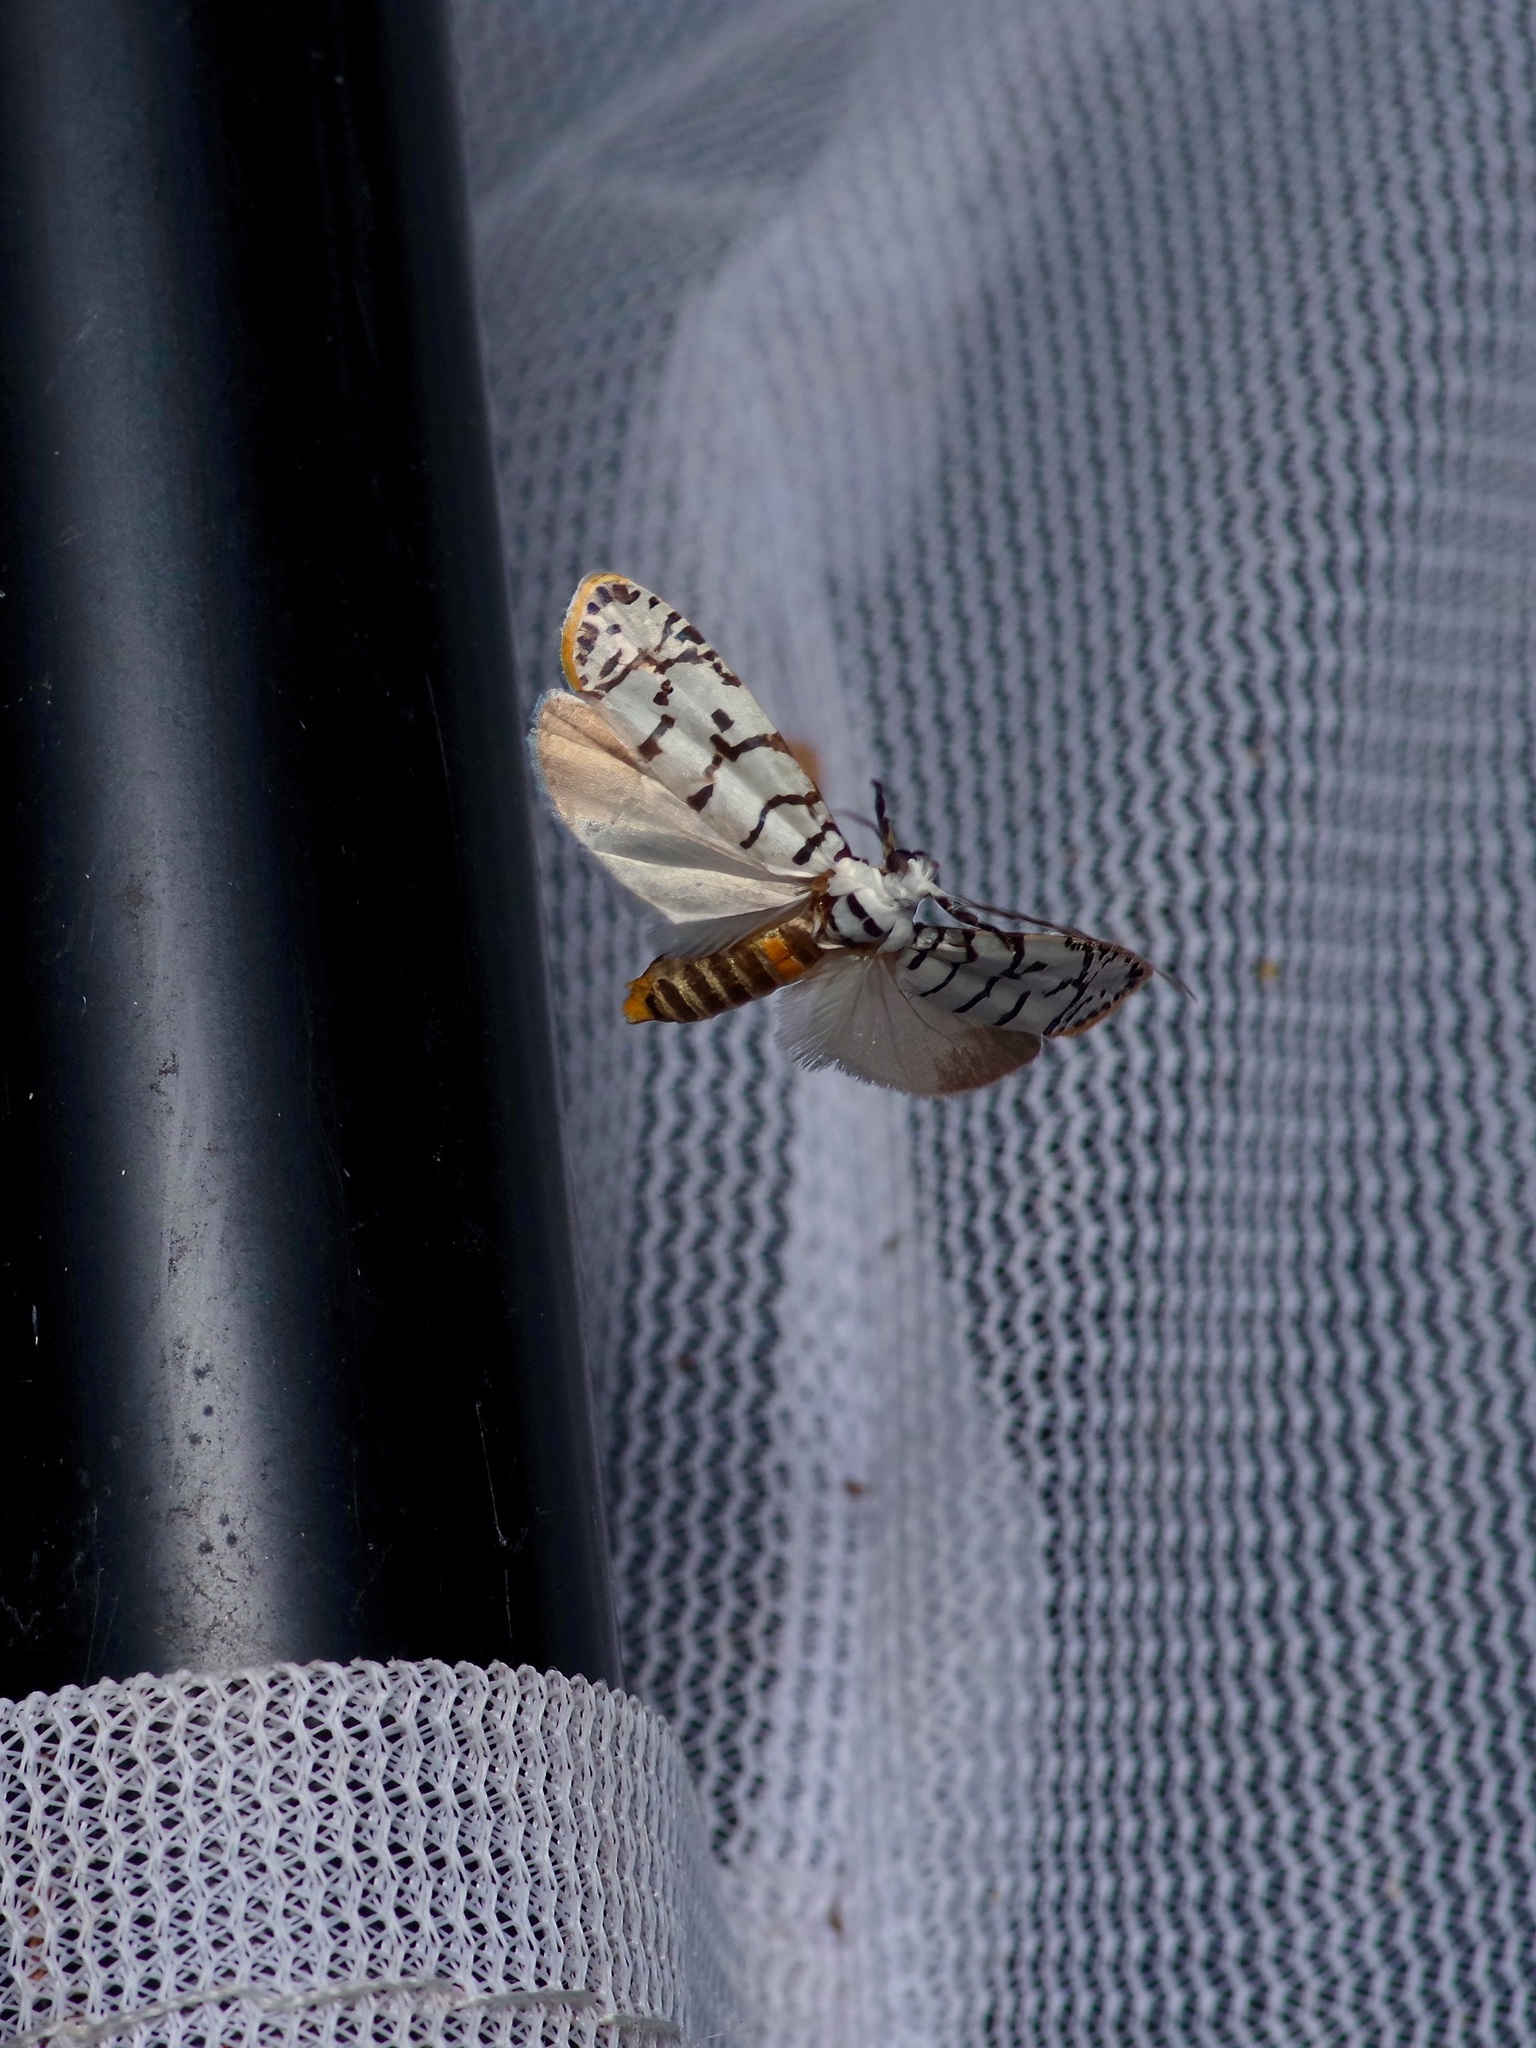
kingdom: Animalia
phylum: Arthropoda
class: Insecta
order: Lepidoptera
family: Ethmiidae
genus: Ethmia
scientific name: Ethmia delliella
